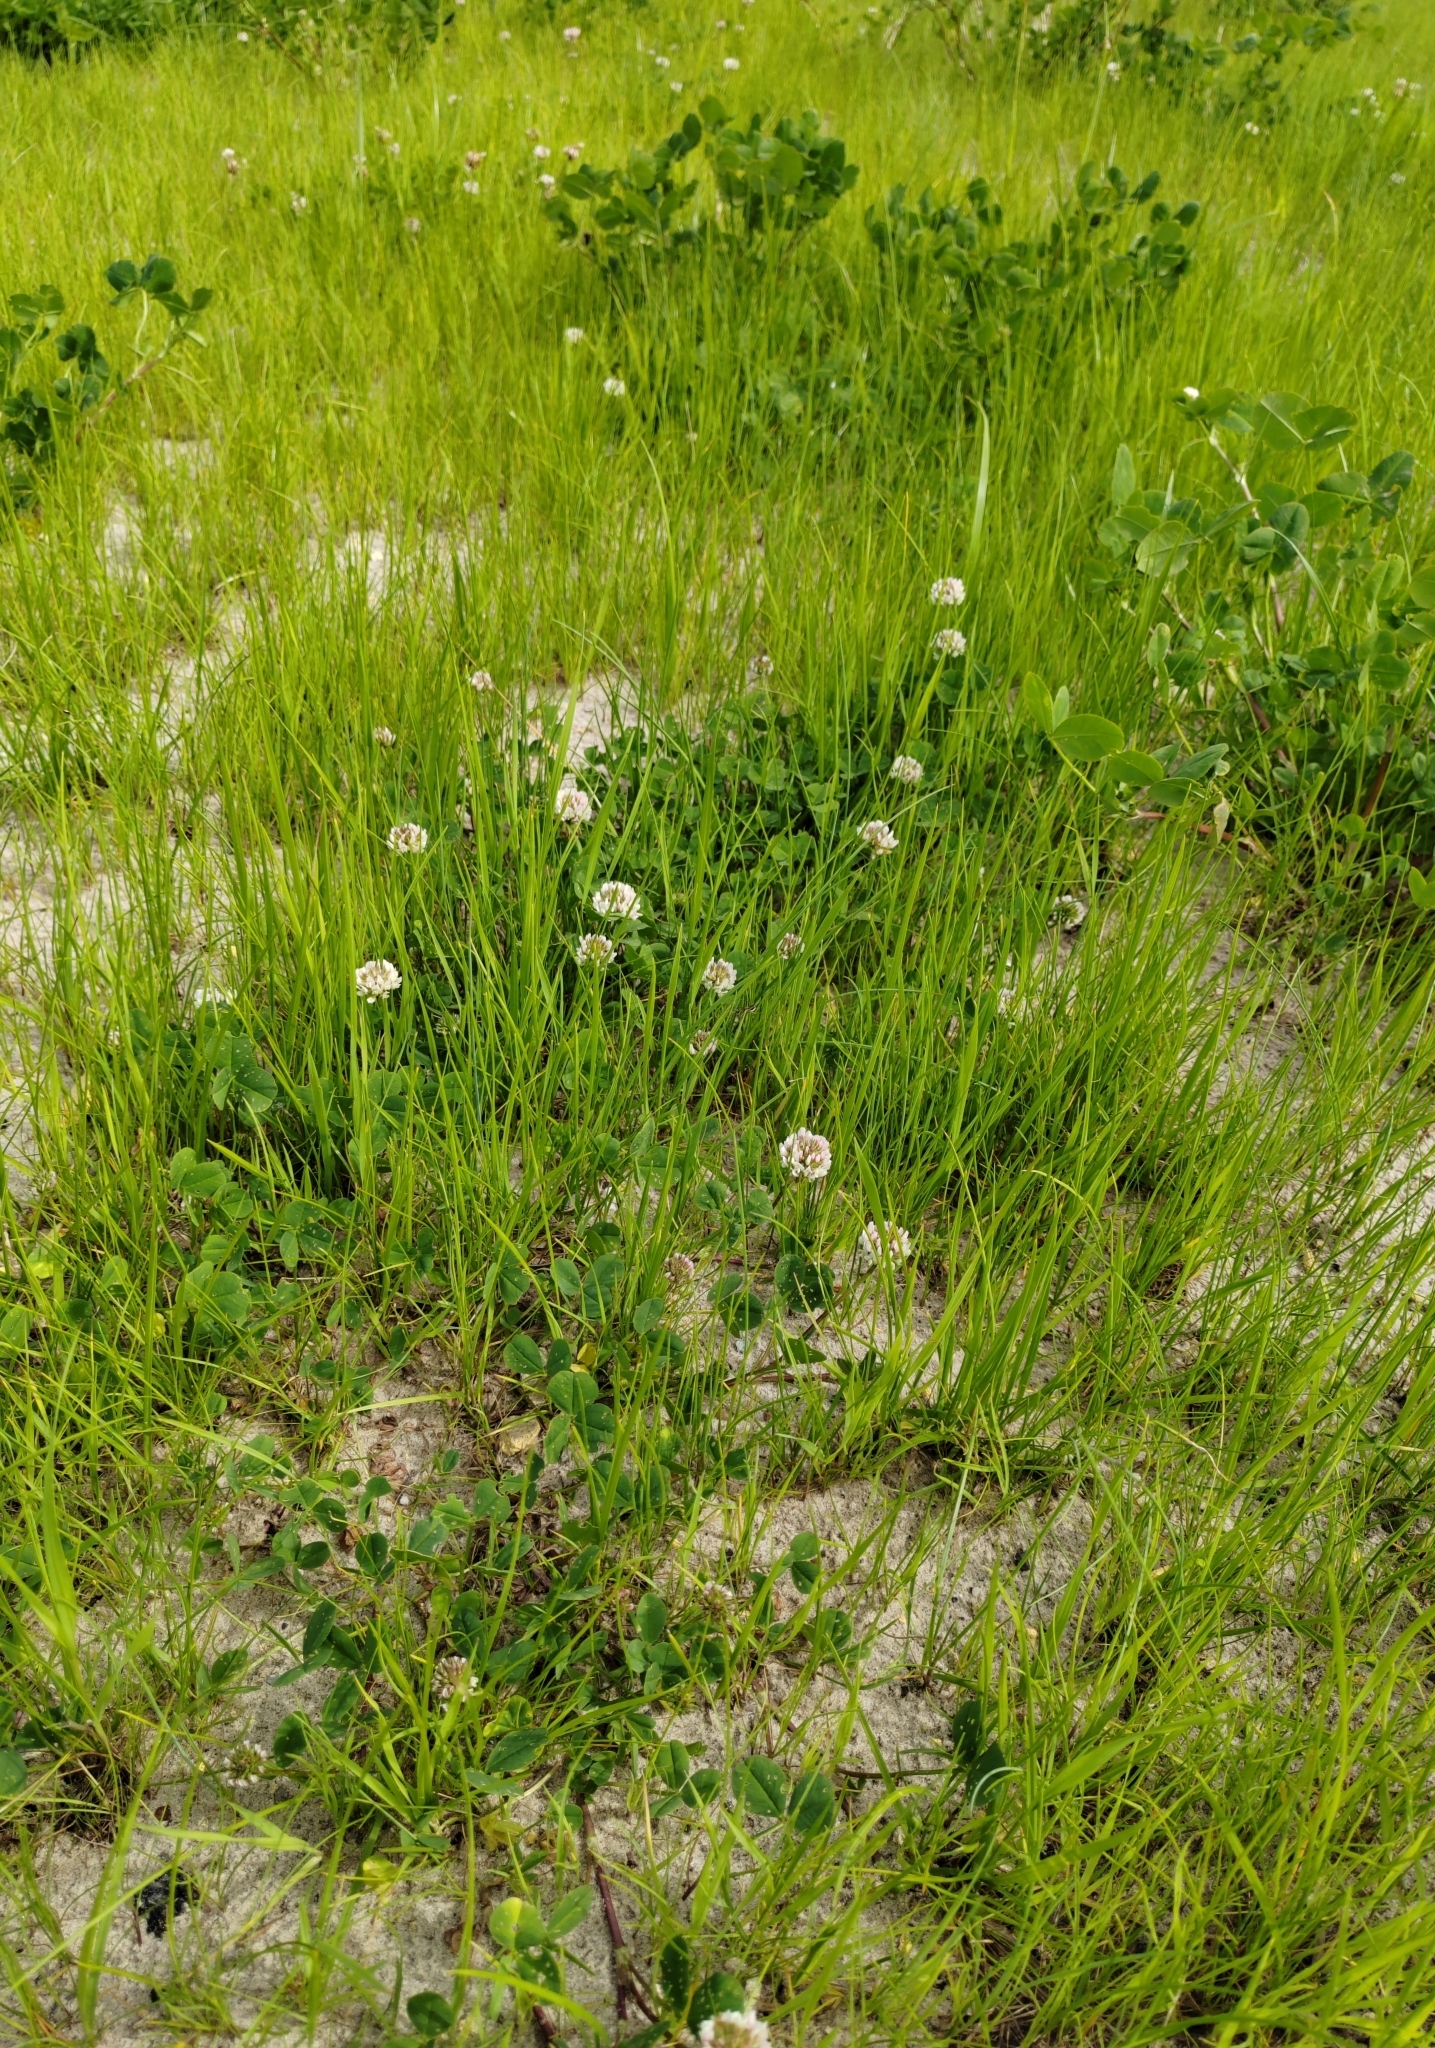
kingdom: Plantae
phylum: Tracheophyta
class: Magnoliopsida
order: Fabales
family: Fabaceae
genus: Trifolium
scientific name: Trifolium repens
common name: White clover
